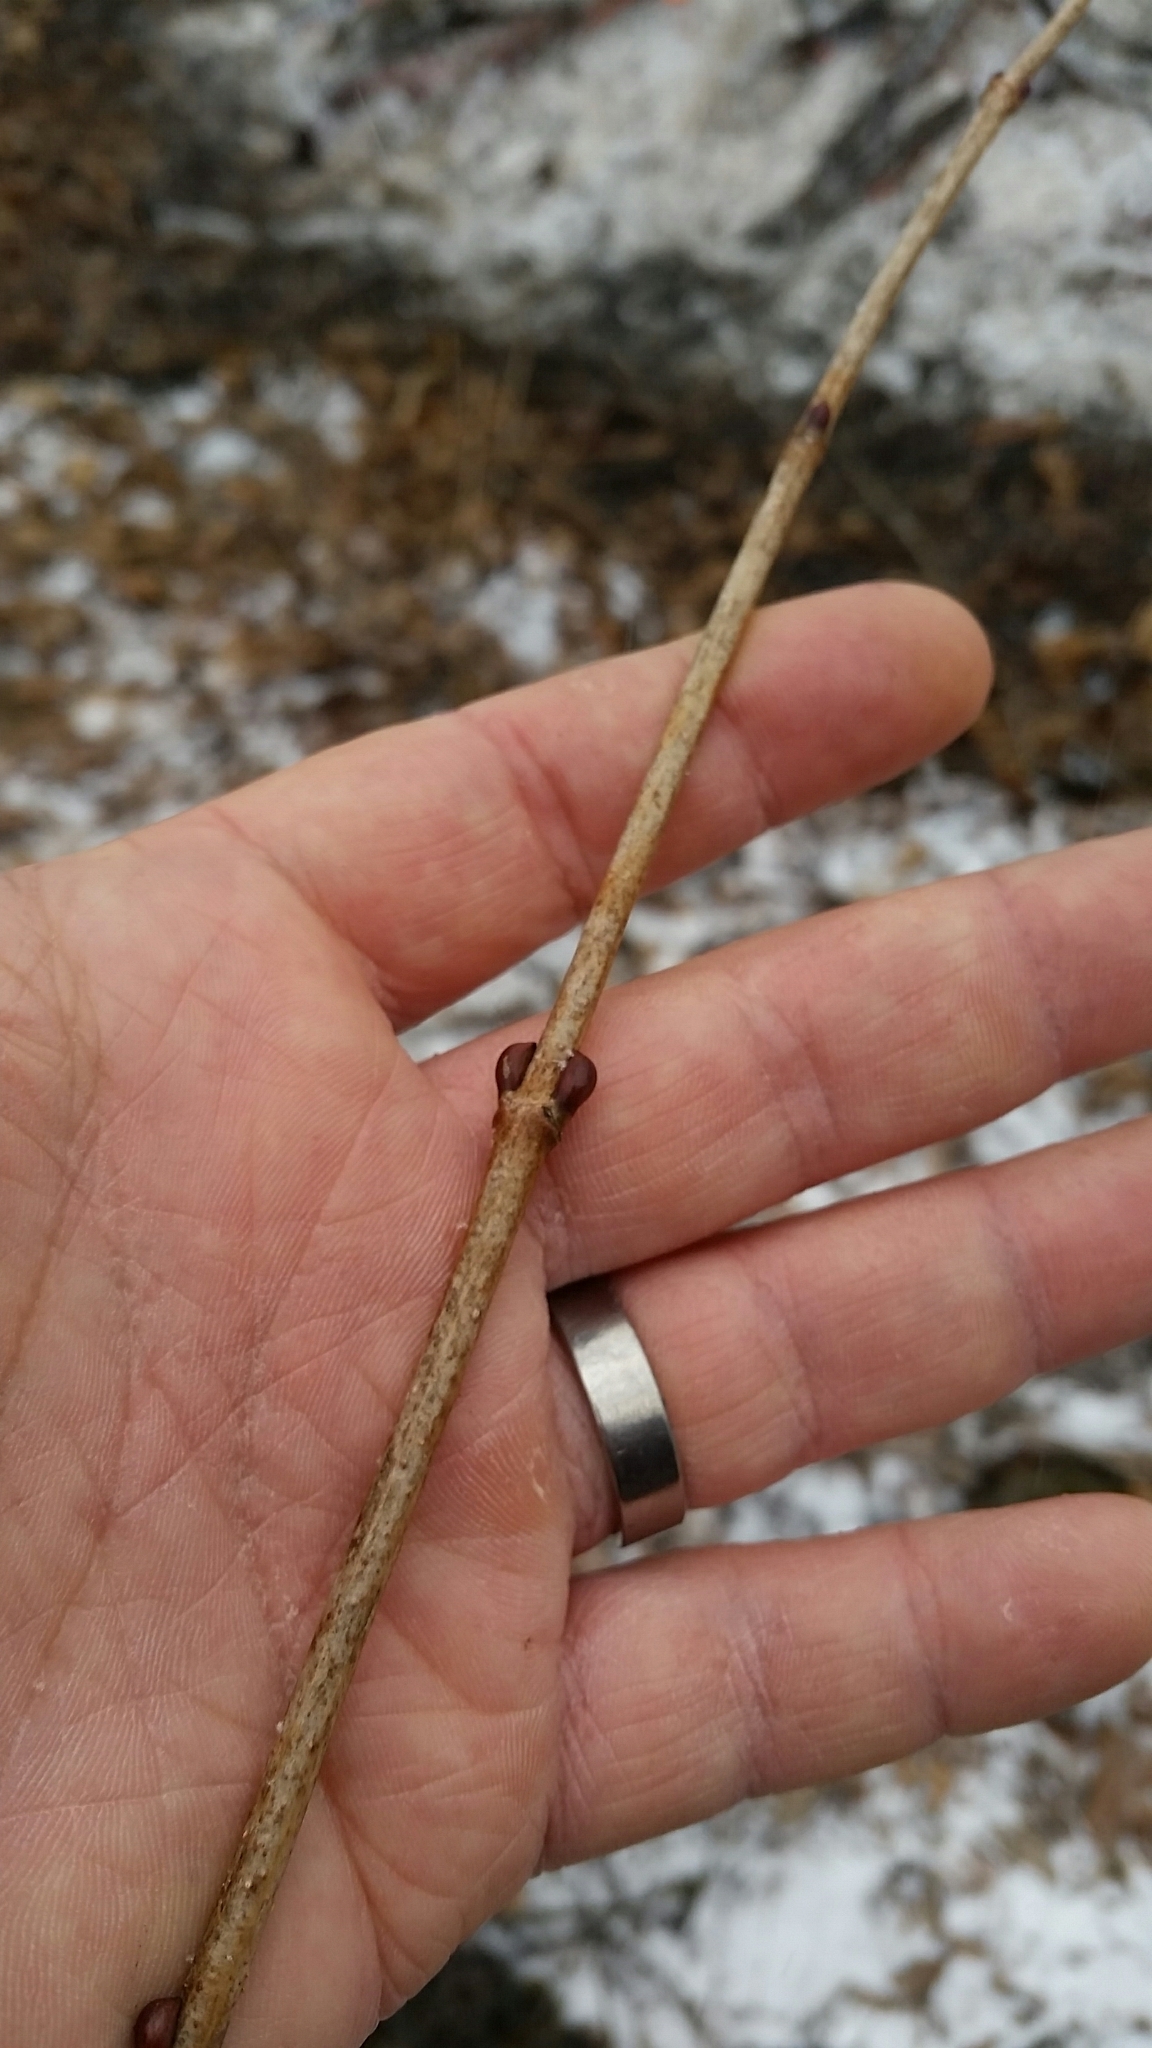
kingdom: Plantae
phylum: Tracheophyta
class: Magnoliopsida
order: Dipsacales
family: Viburnaceae
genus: Viburnum
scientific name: Viburnum opulus
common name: Guelder-rose
